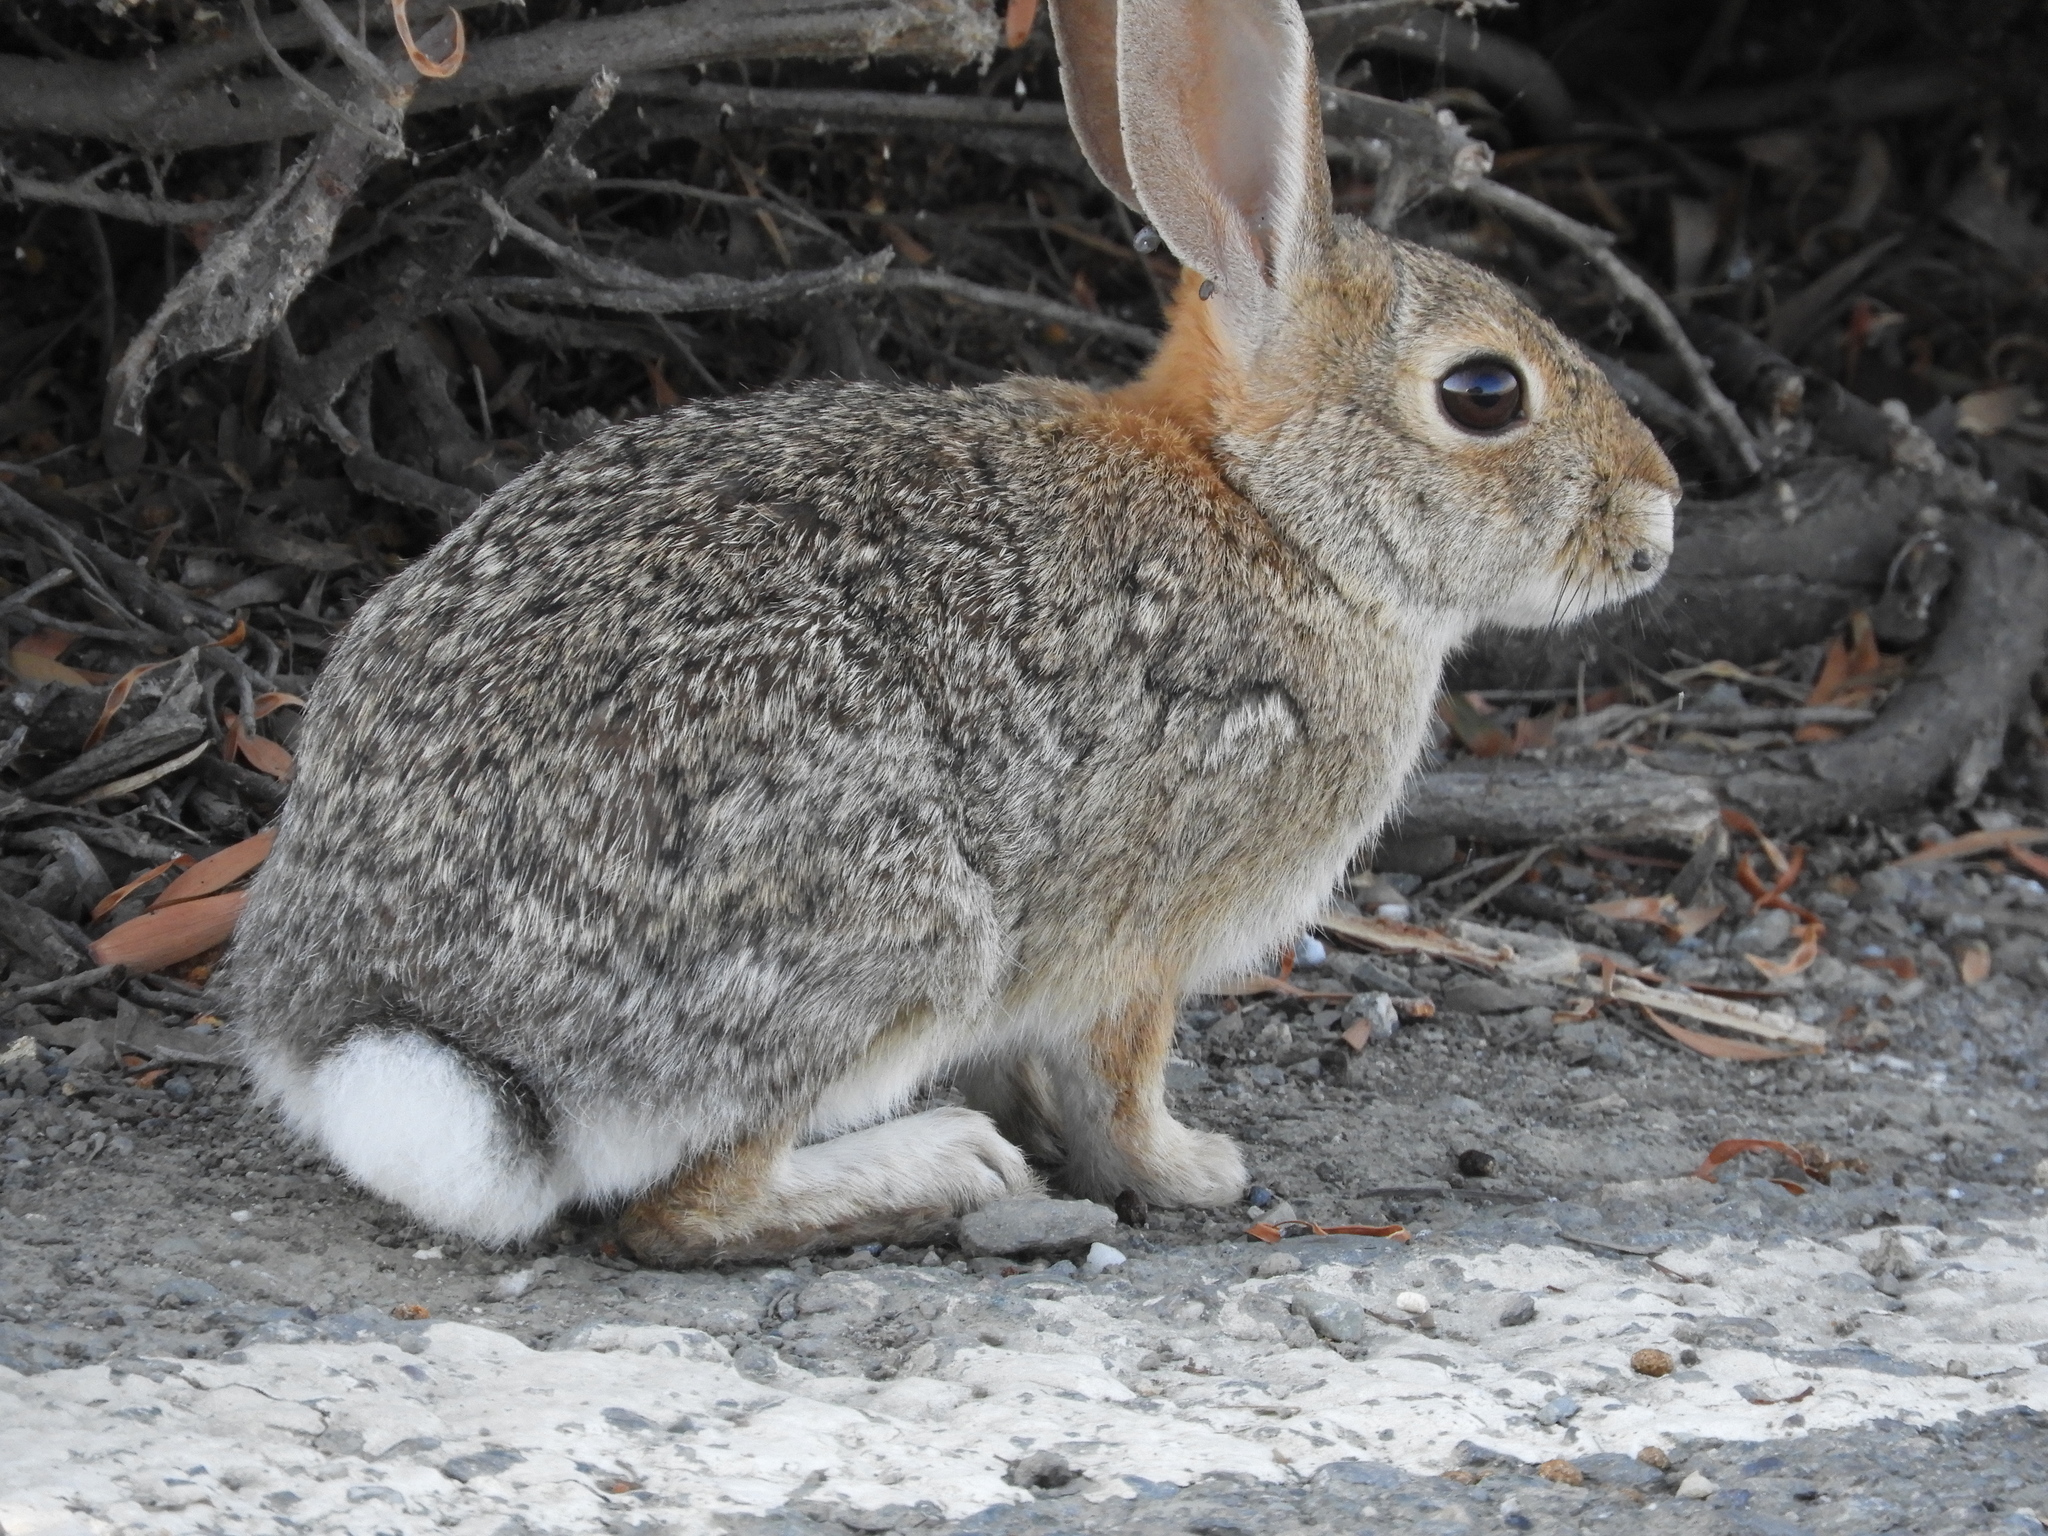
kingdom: Animalia
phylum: Chordata
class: Mammalia
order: Lagomorpha
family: Leporidae
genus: Sylvilagus
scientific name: Sylvilagus audubonii
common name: Desert cottontail
